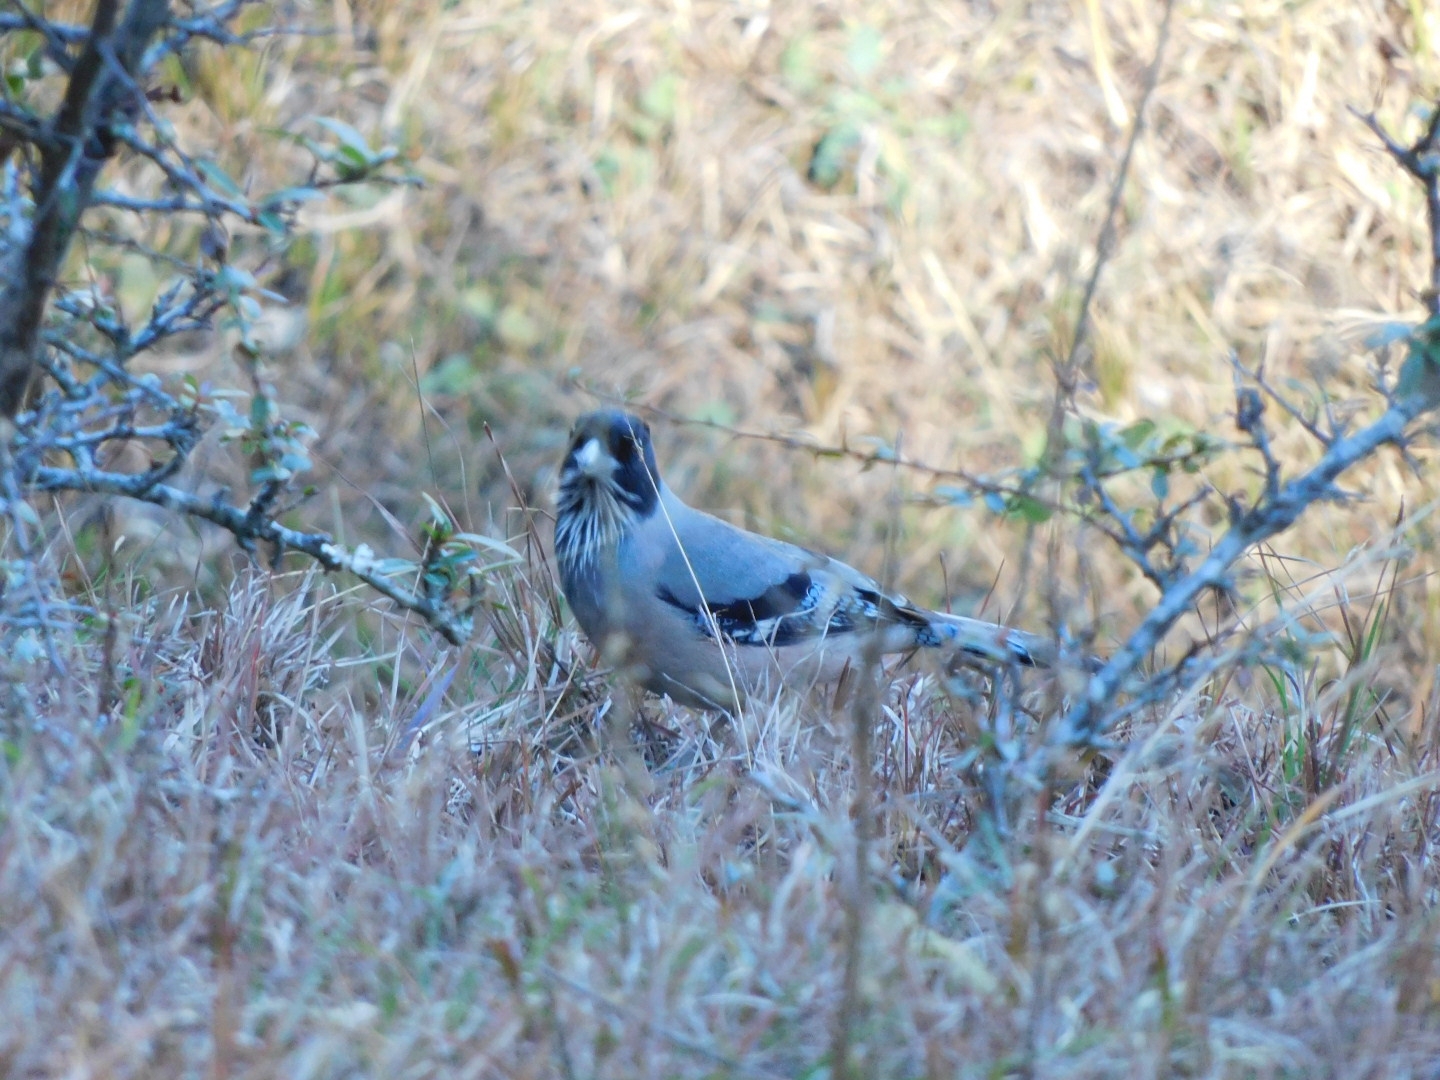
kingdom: Animalia
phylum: Chordata
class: Aves
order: Passeriformes
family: Corvidae
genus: Garrulus
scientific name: Garrulus lanceolatus
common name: Black-headed jay
